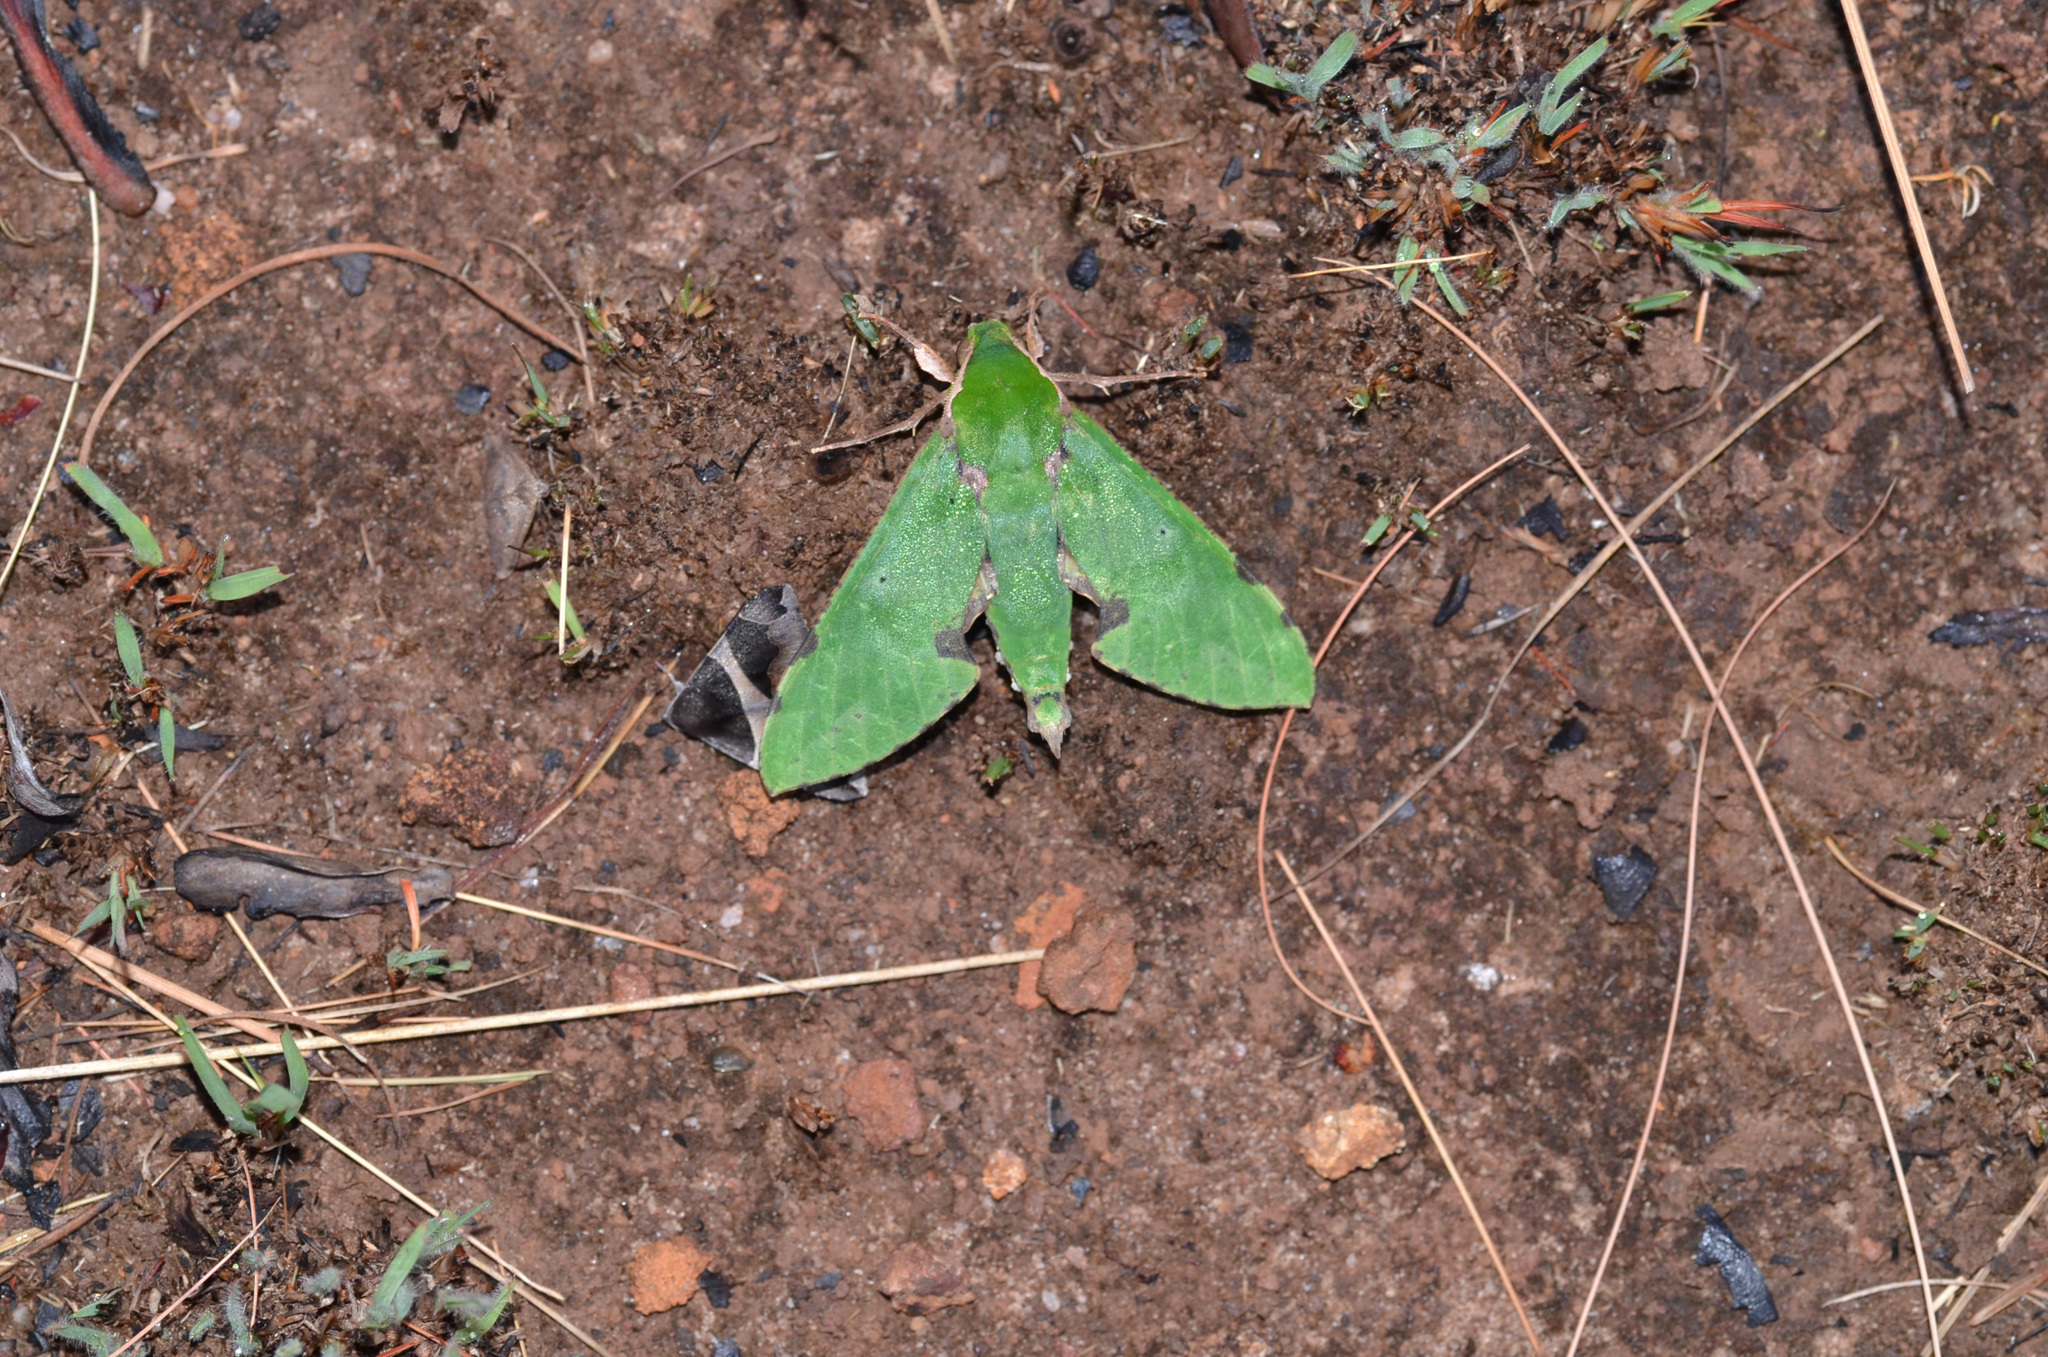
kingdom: Animalia
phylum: Arthropoda
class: Insecta
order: Lepidoptera
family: Sphingidae
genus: Euchloron
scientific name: Euchloron megaera
